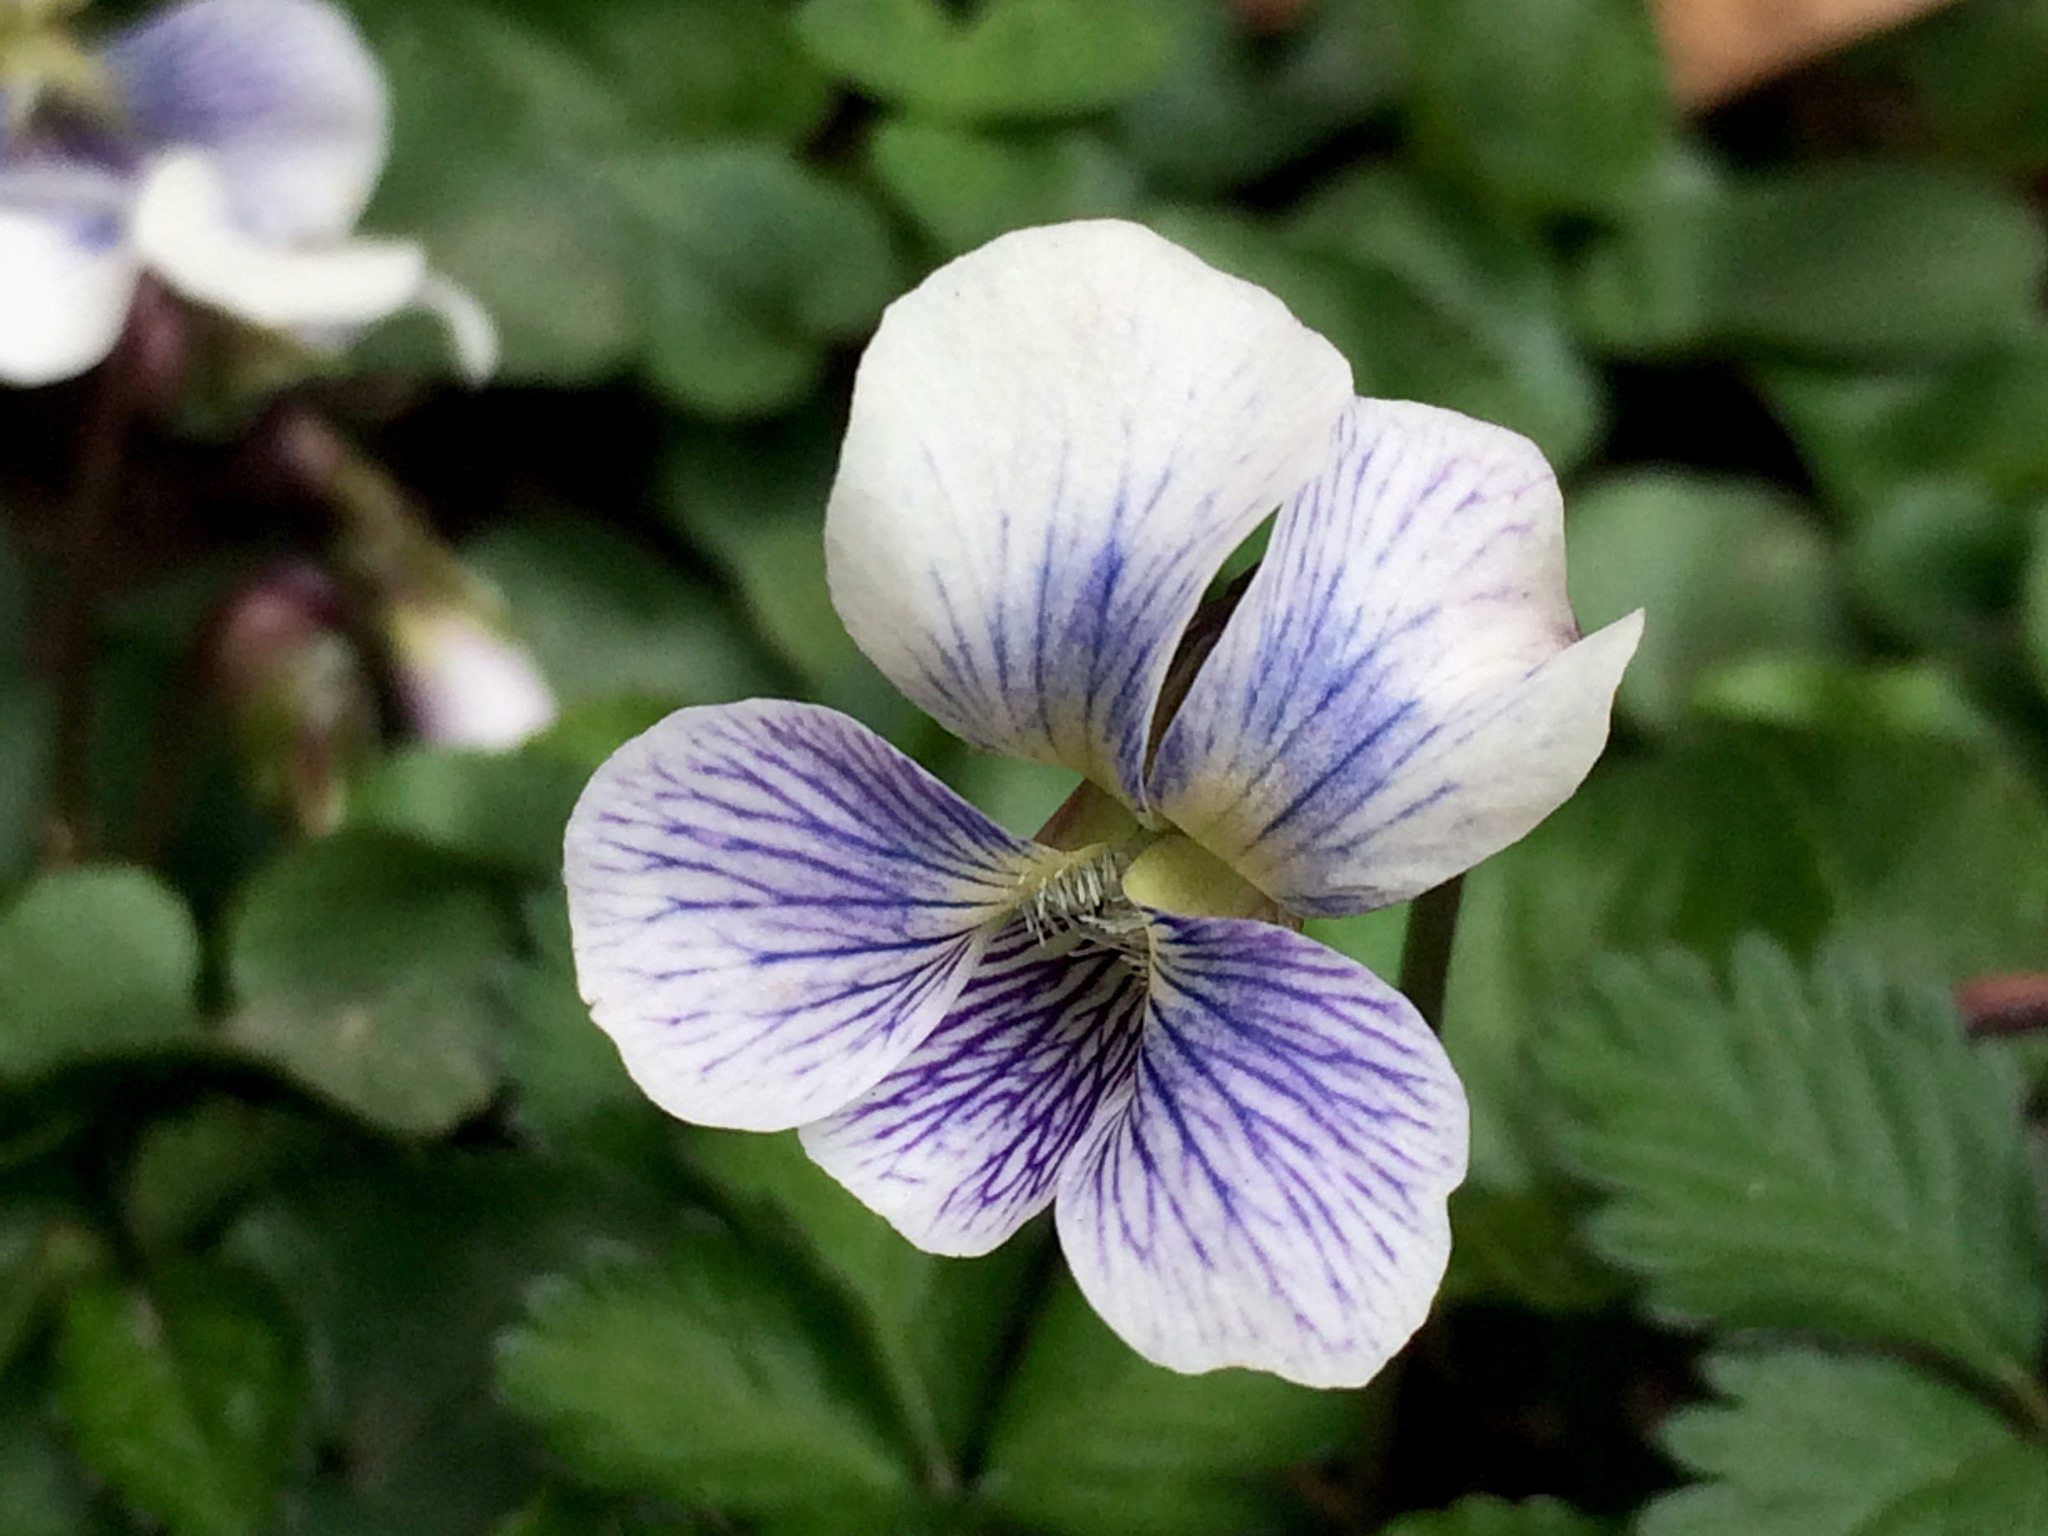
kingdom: Plantae
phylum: Tracheophyta
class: Magnoliopsida
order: Malpighiales
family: Violaceae
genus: Viola
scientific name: Viola sororia
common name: Dooryard violet
